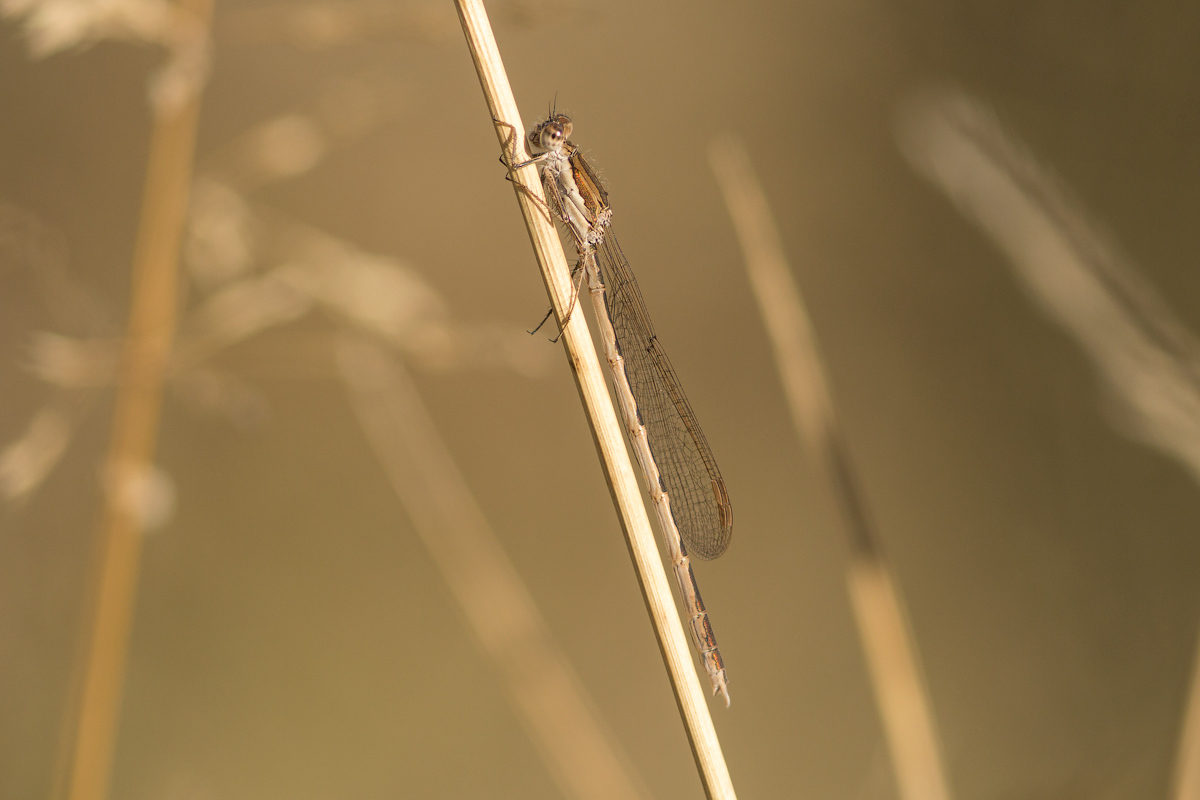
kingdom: Animalia
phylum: Arthropoda
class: Insecta
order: Odonata
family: Lestidae
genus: Sympecma
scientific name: Sympecma fusca
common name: Common winter damsel
